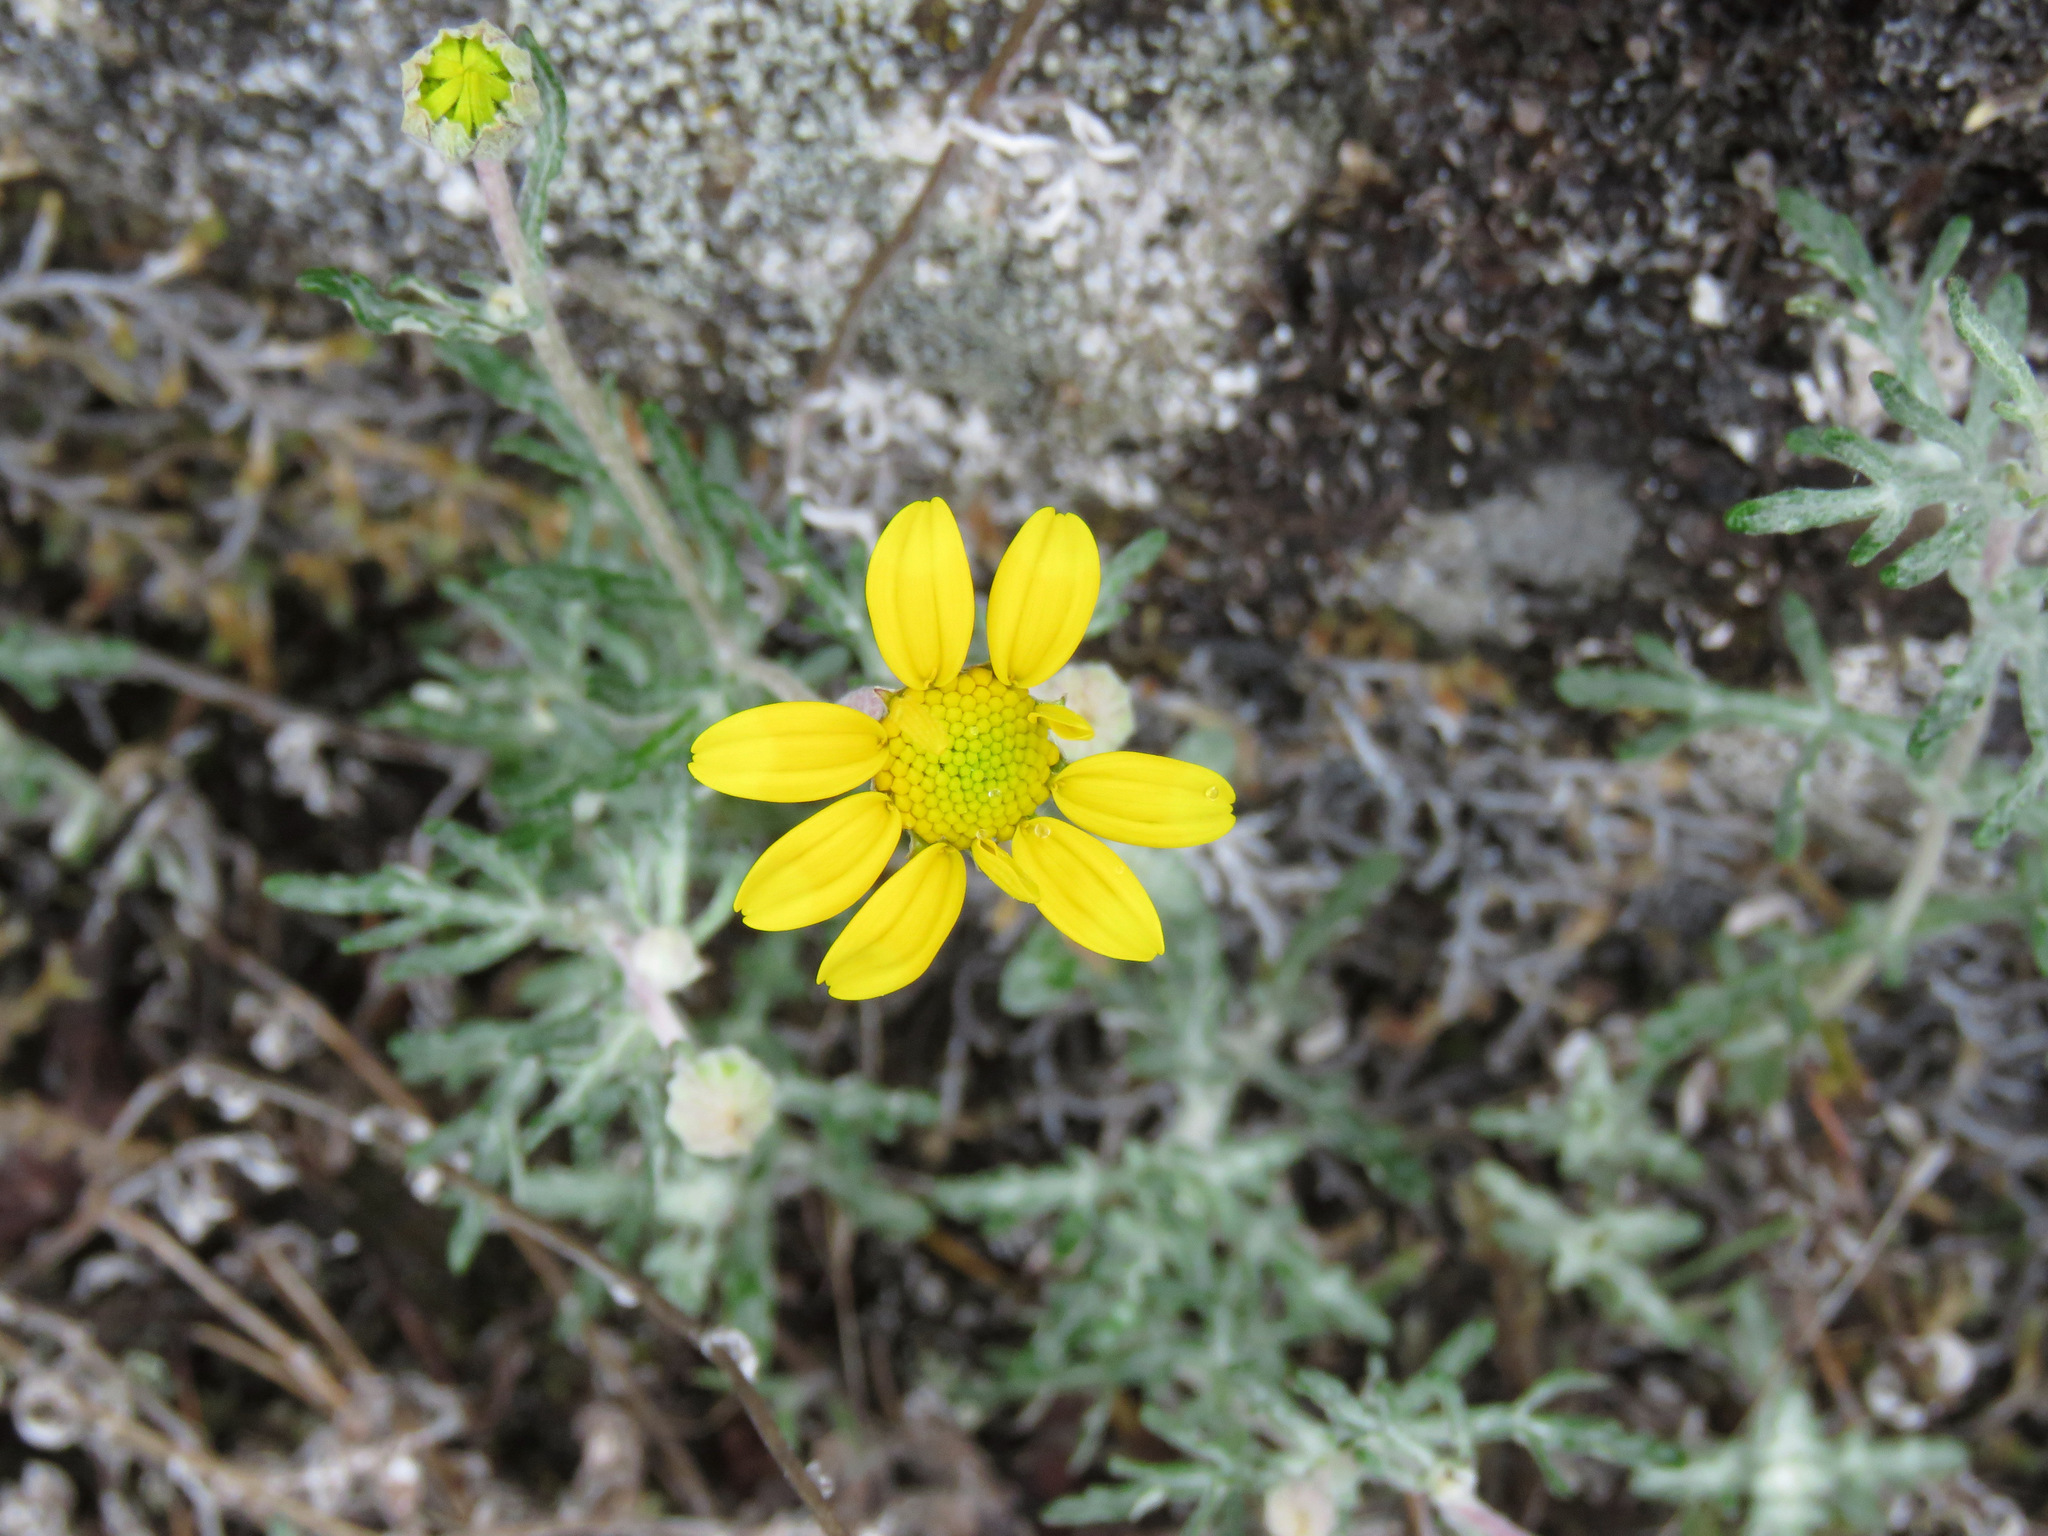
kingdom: Plantae
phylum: Tracheophyta
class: Magnoliopsida
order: Asterales
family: Asteraceae
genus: Eriophyllum
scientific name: Eriophyllum lanatum
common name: Common woolly-sunflower
